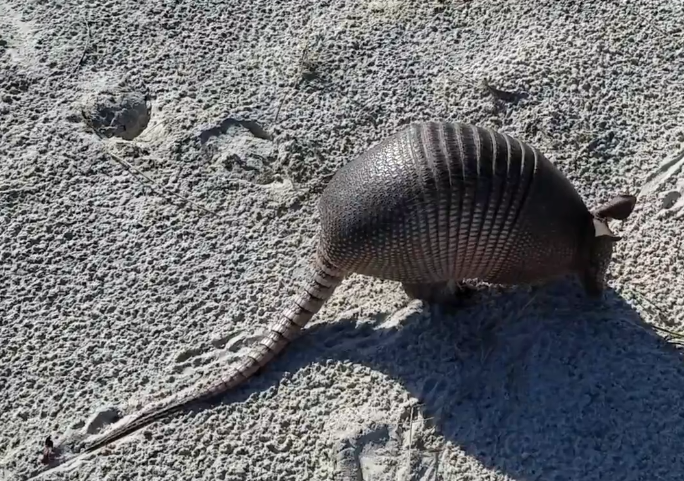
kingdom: Animalia
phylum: Chordata
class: Mammalia
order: Cingulata
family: Dasypodidae
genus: Dasypus
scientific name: Dasypus novemcinctus
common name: Nine-banded armadillo
